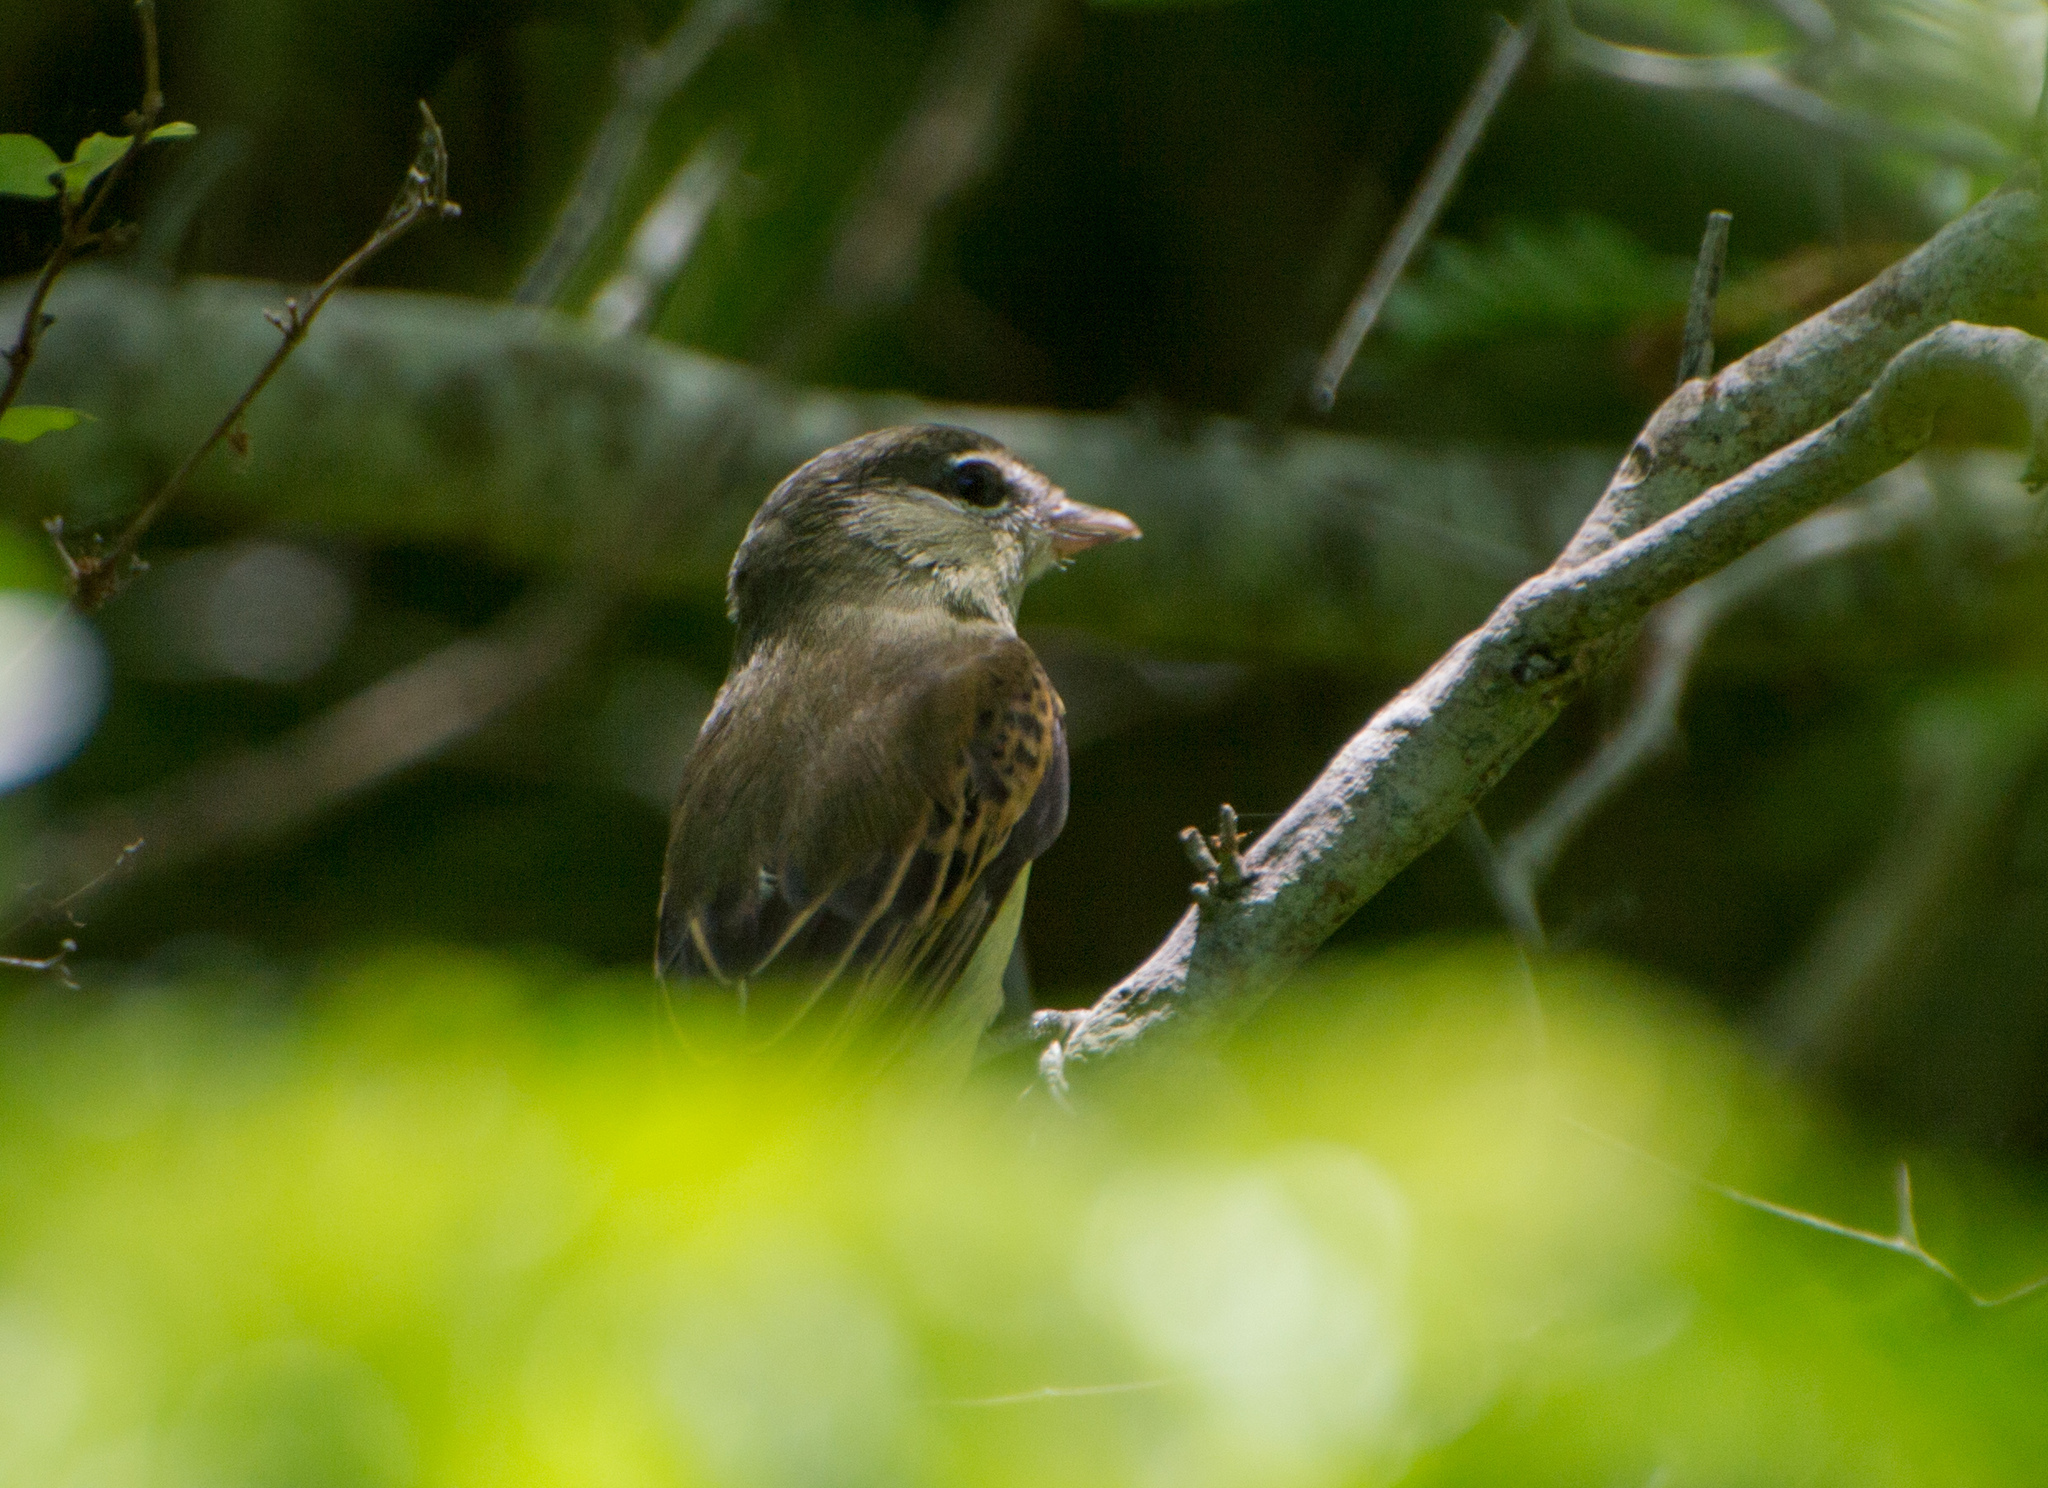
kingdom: Animalia
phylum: Chordata
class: Aves
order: Passeriformes
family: Cotingidae
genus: Pachyramphus
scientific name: Pachyramphus polychopterus
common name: White-winged becard
